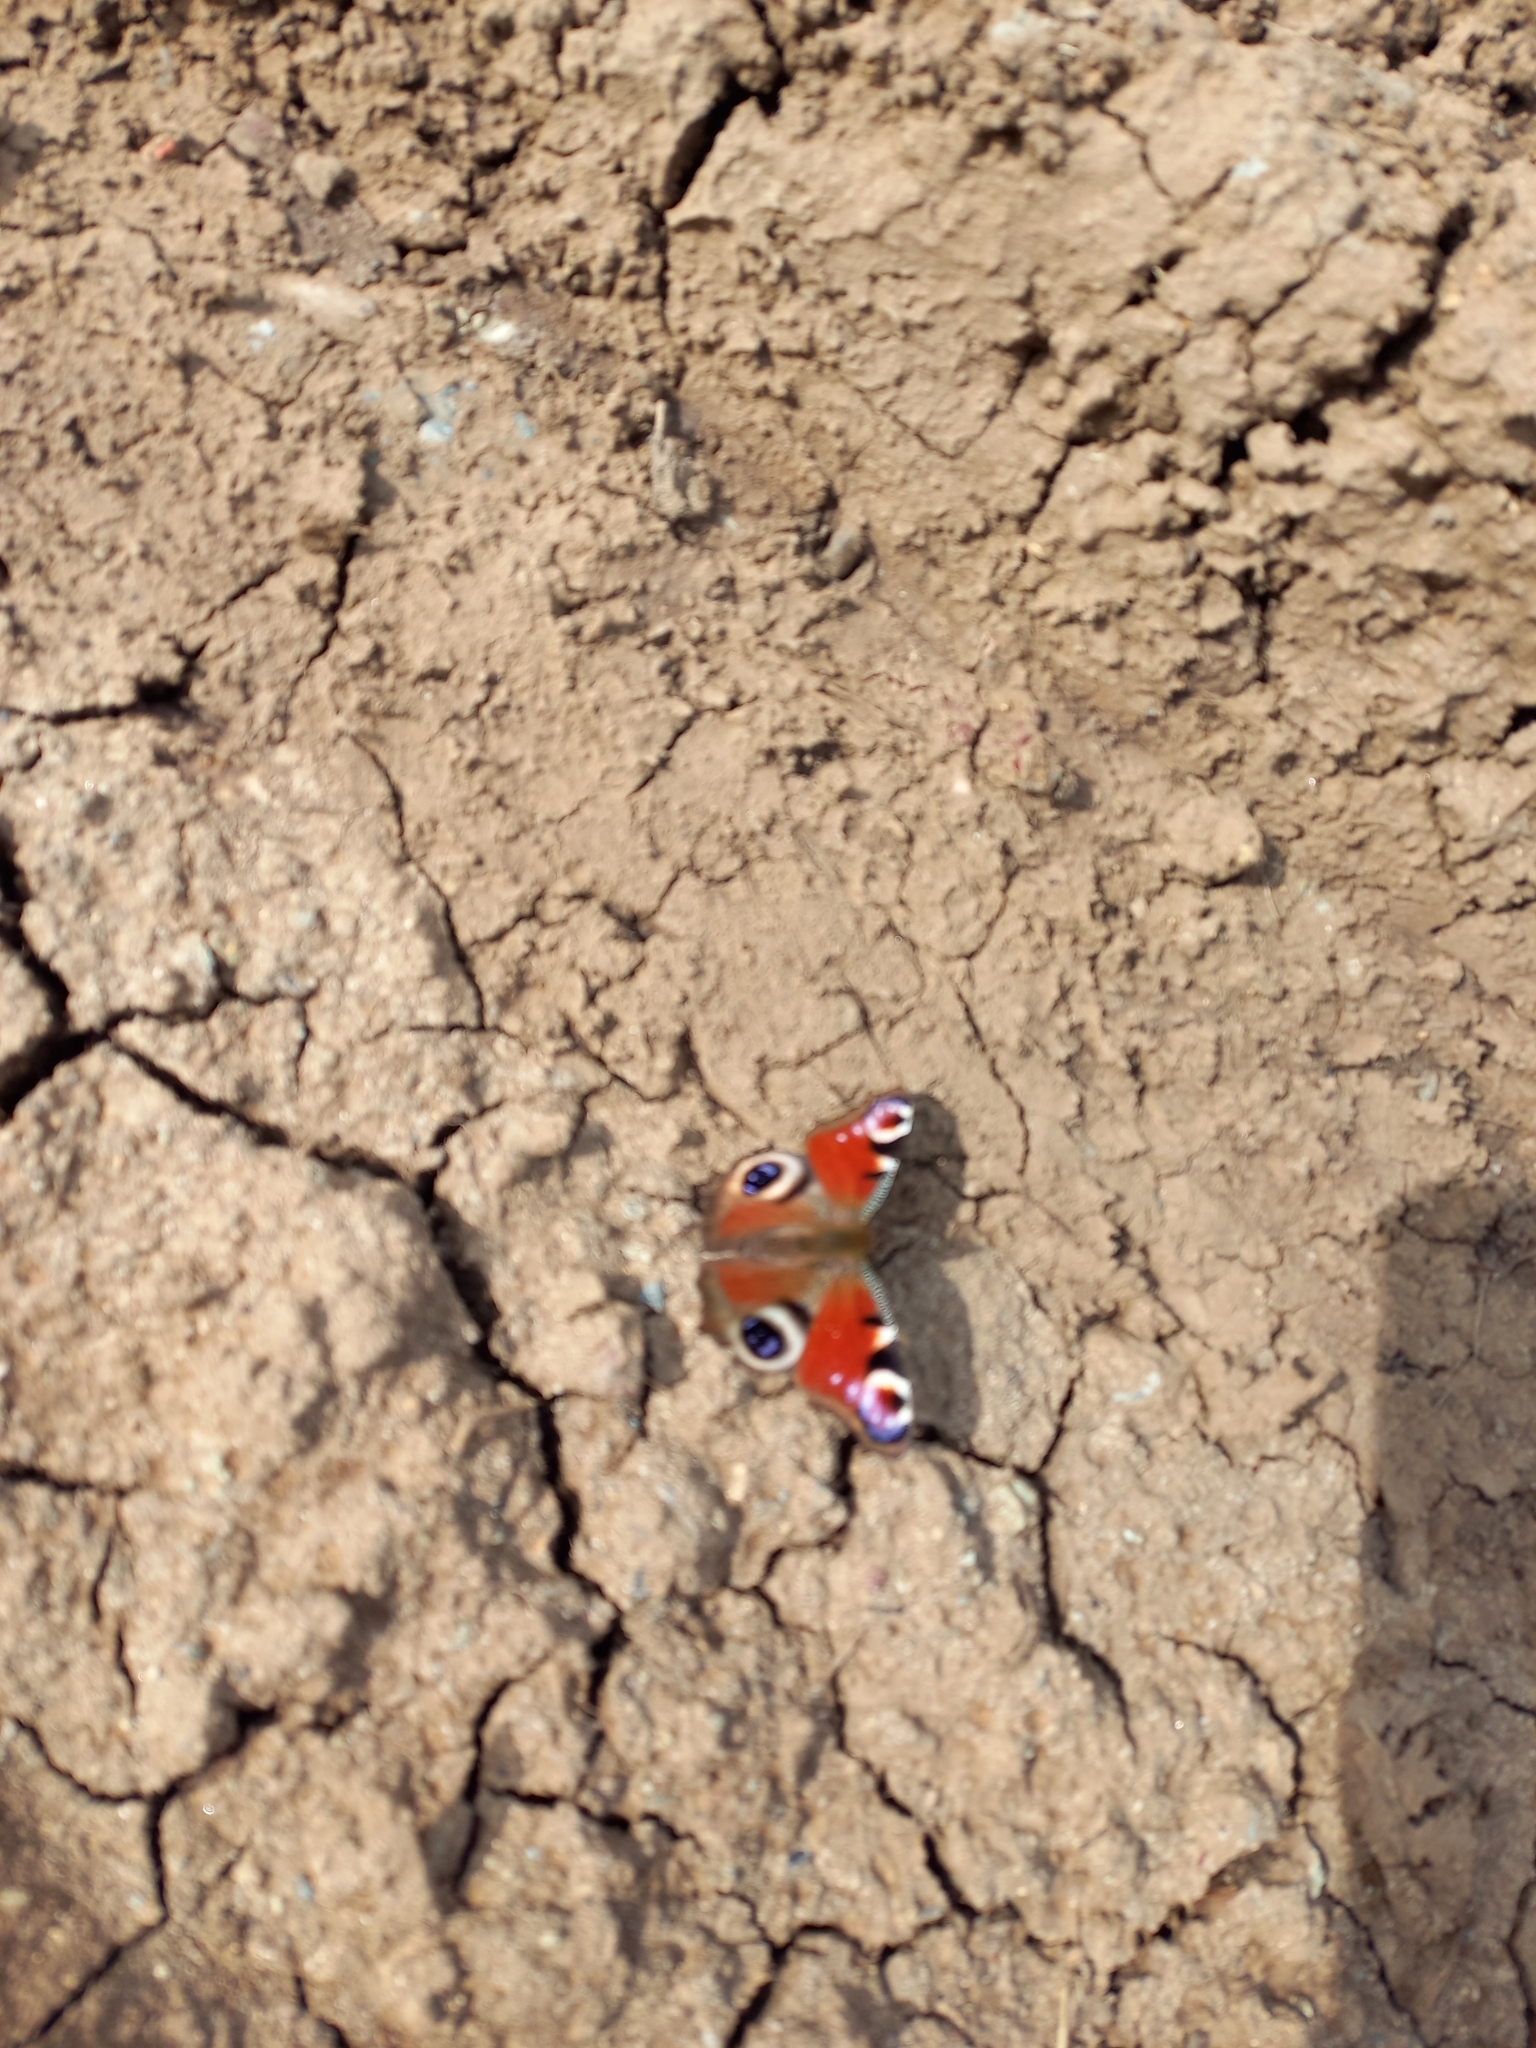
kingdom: Animalia
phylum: Arthropoda
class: Insecta
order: Lepidoptera
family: Nymphalidae
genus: Aglais
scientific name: Aglais io
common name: Peacock
